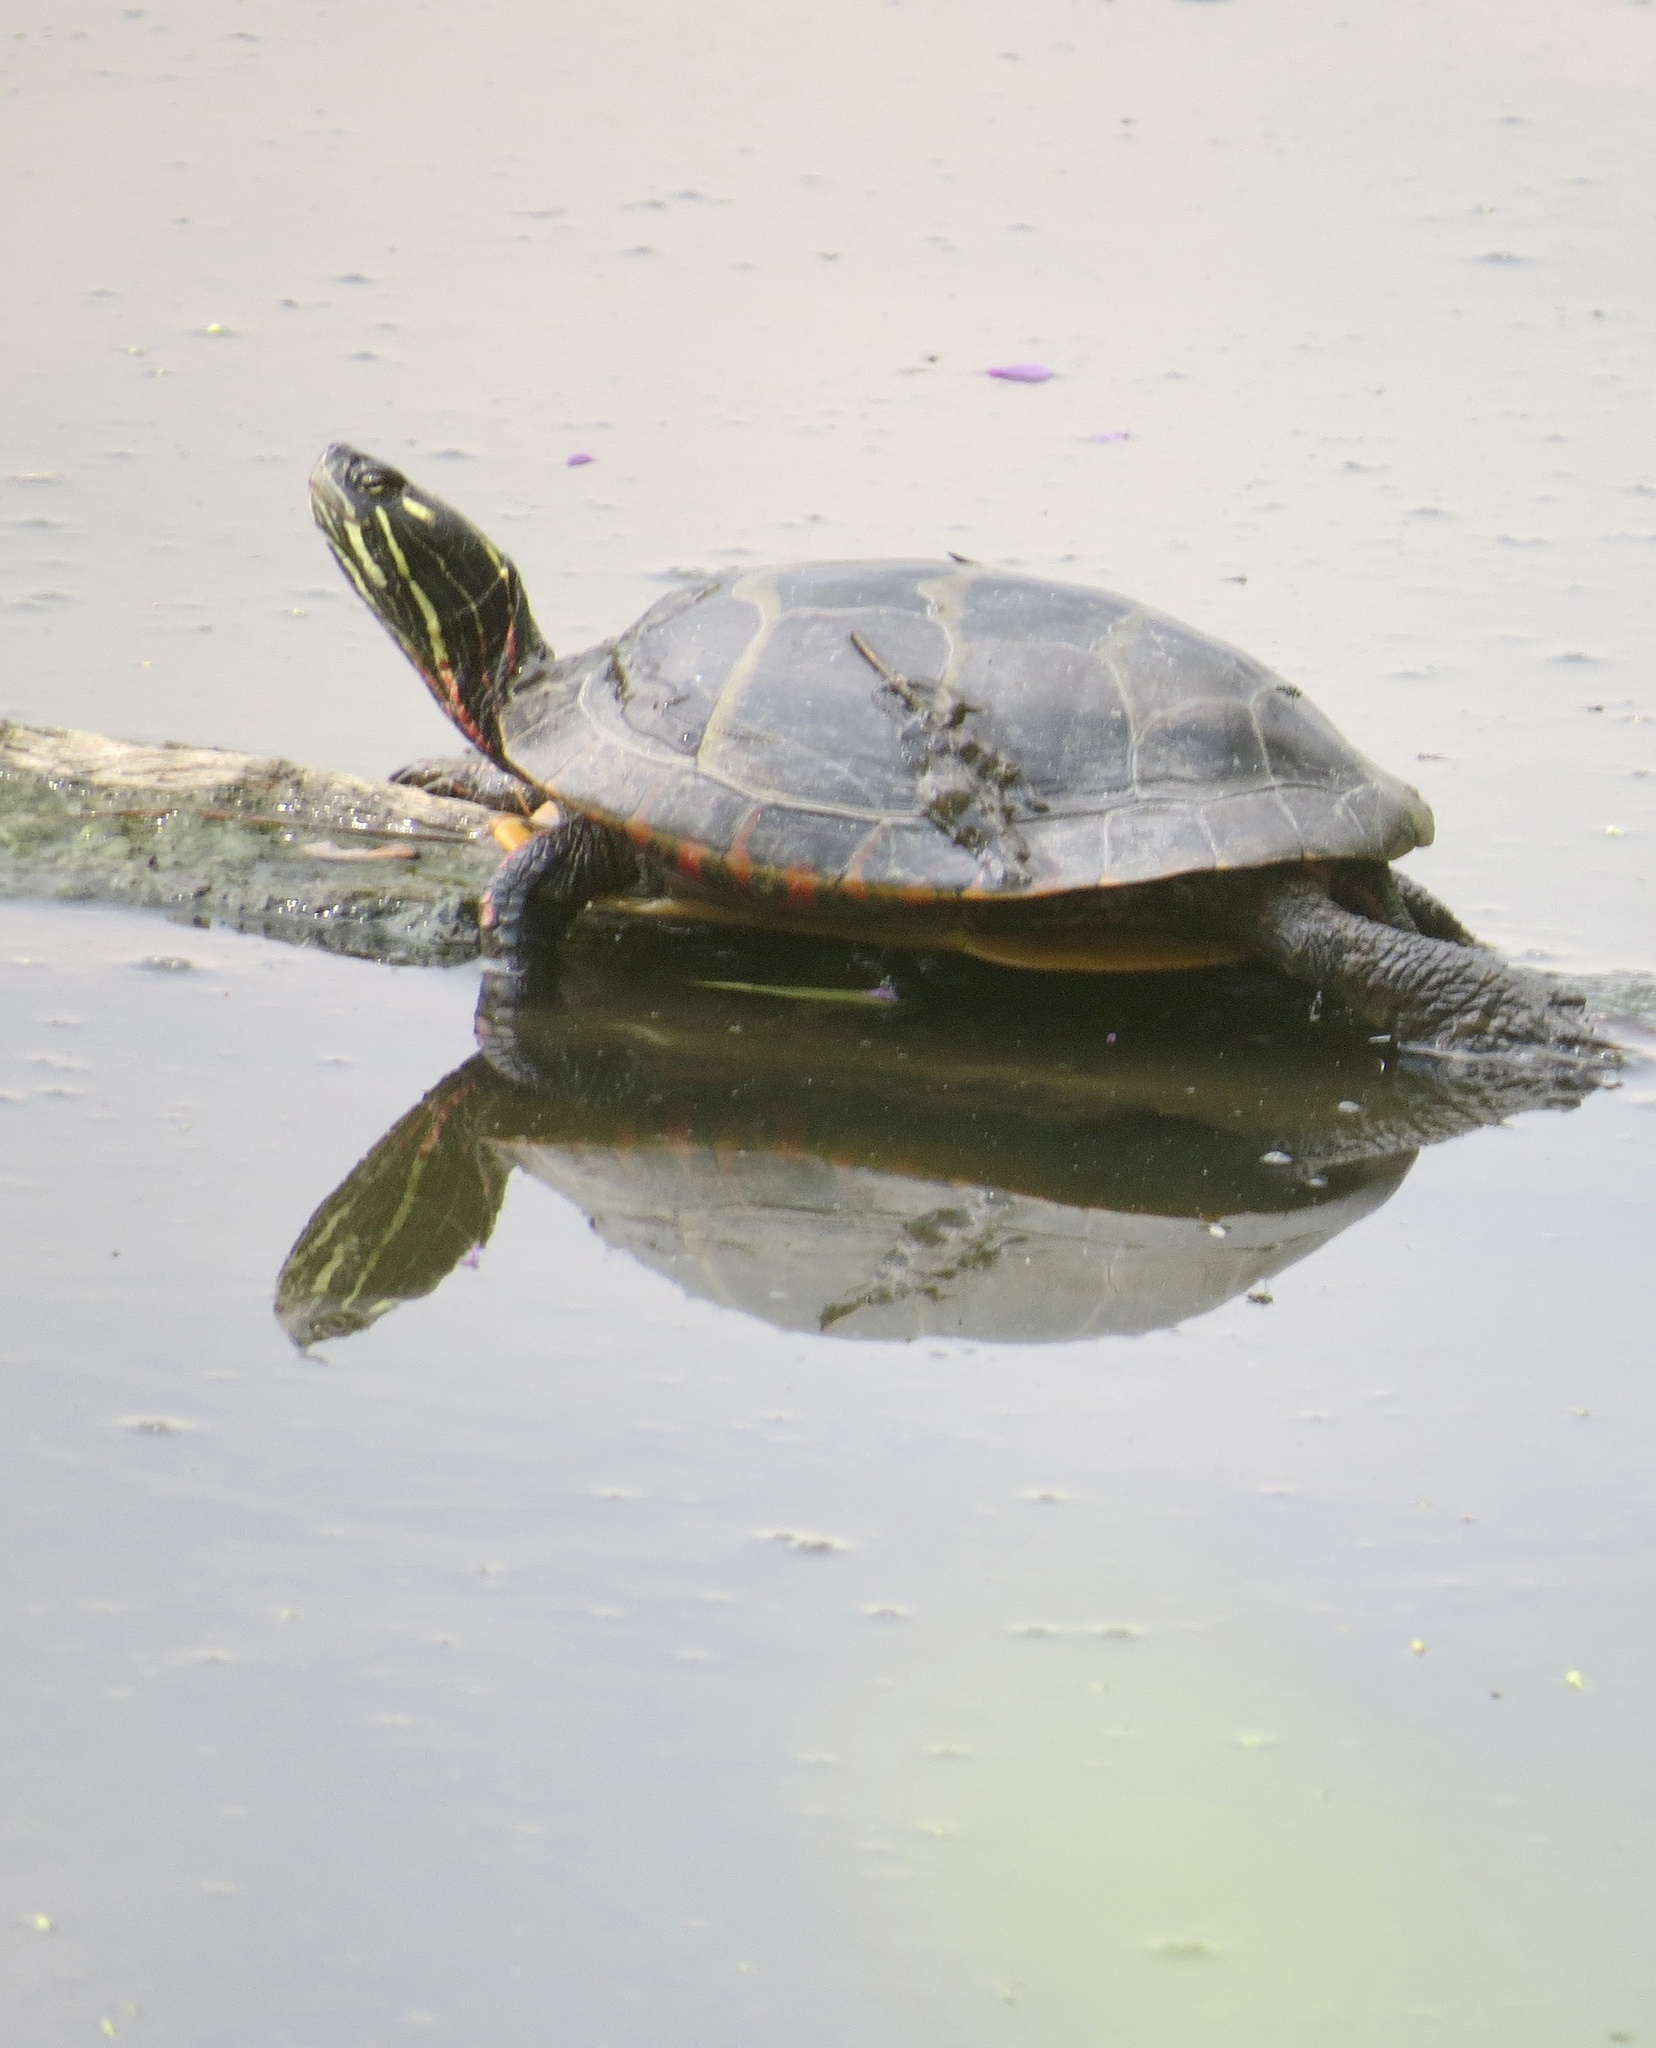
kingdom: Animalia
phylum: Chordata
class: Testudines
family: Emydidae
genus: Chrysemys
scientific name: Chrysemys picta
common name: Painted turtle
